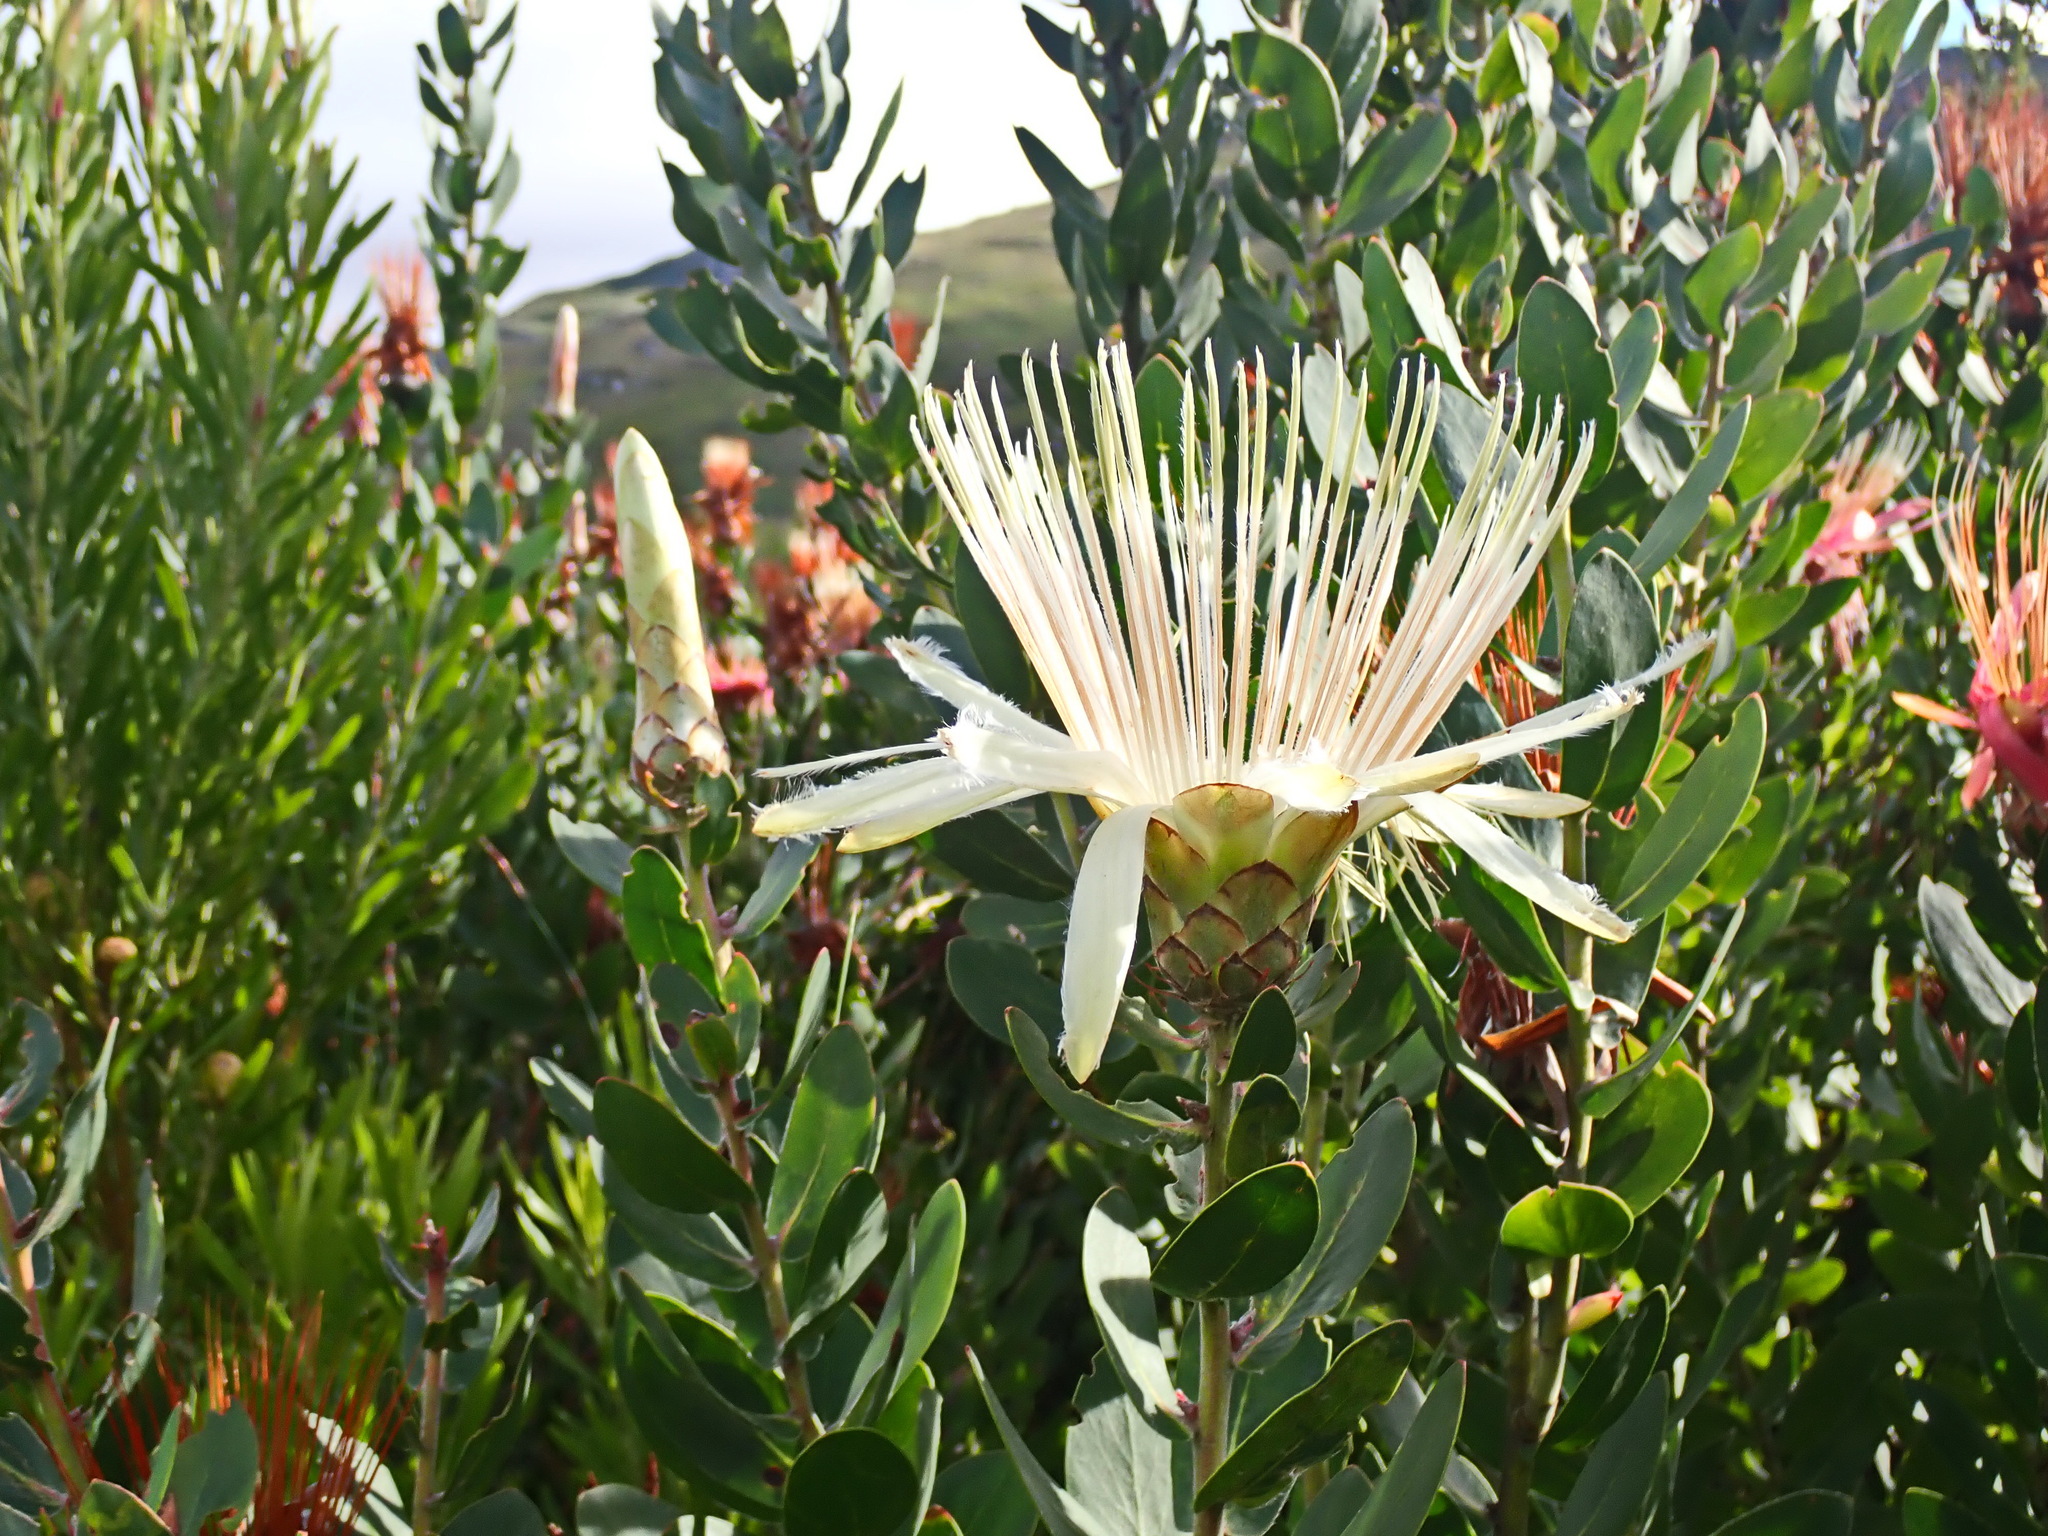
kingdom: Plantae
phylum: Tracheophyta
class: Magnoliopsida
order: Proteales
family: Proteaceae
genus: Protea
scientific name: Protea aurea
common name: Shuttlecock sugarbush
